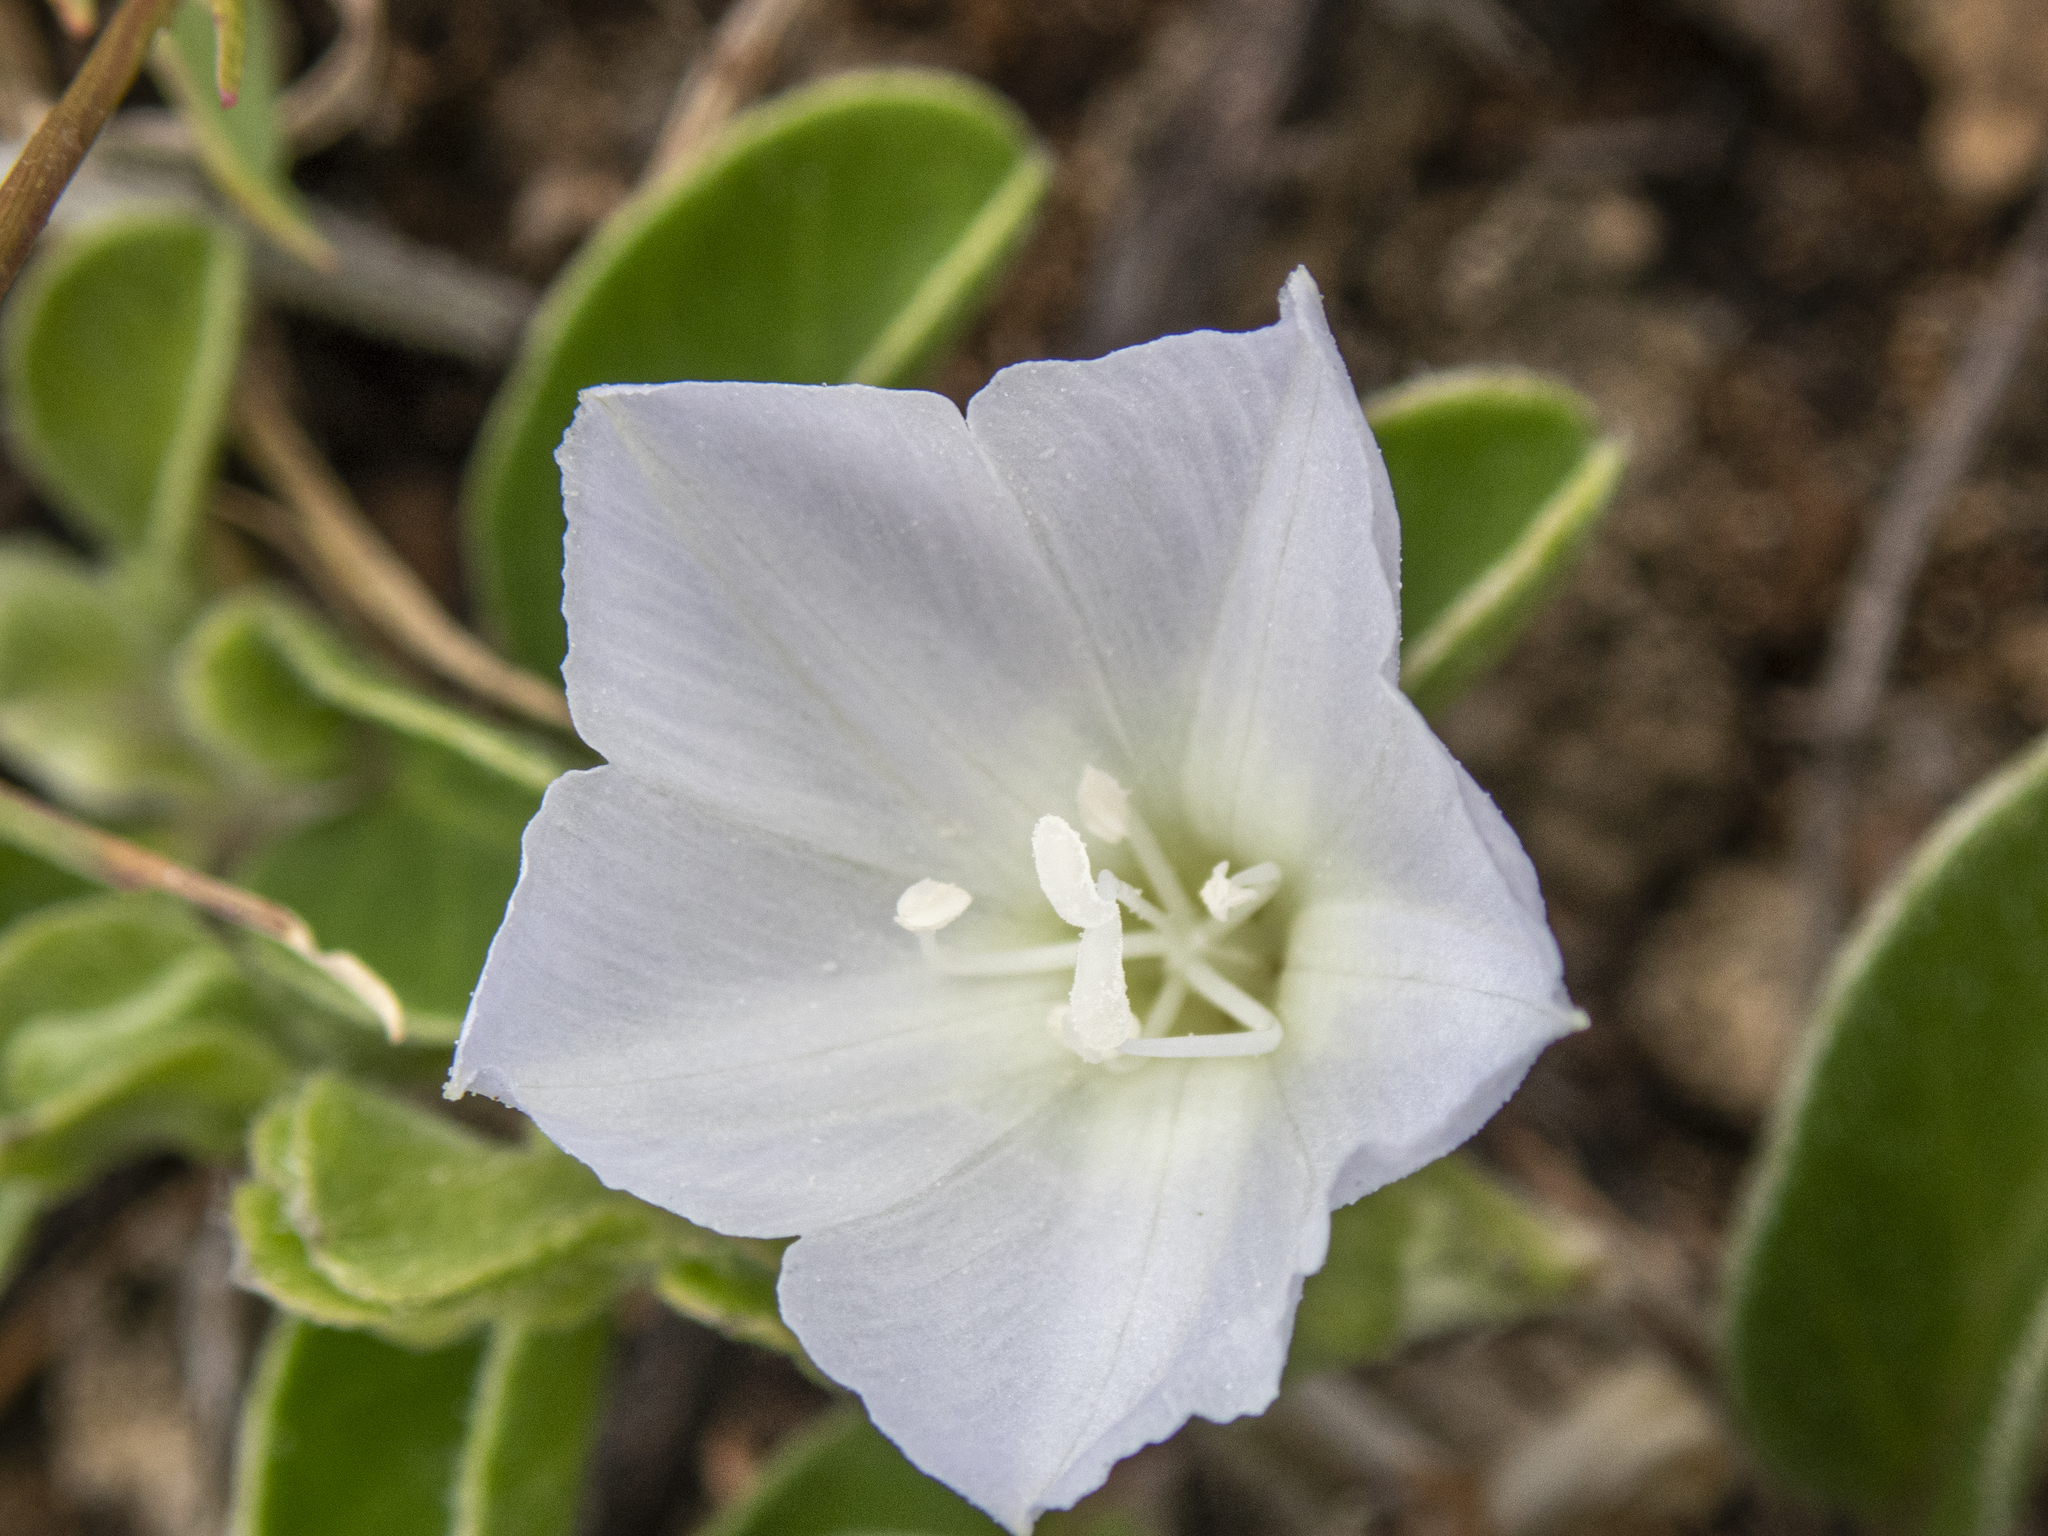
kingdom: Plantae
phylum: Tracheophyta
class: Magnoliopsida
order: Solanales
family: Convolvulaceae
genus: Jacquemontia
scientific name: Jacquemontia sandwicensis
